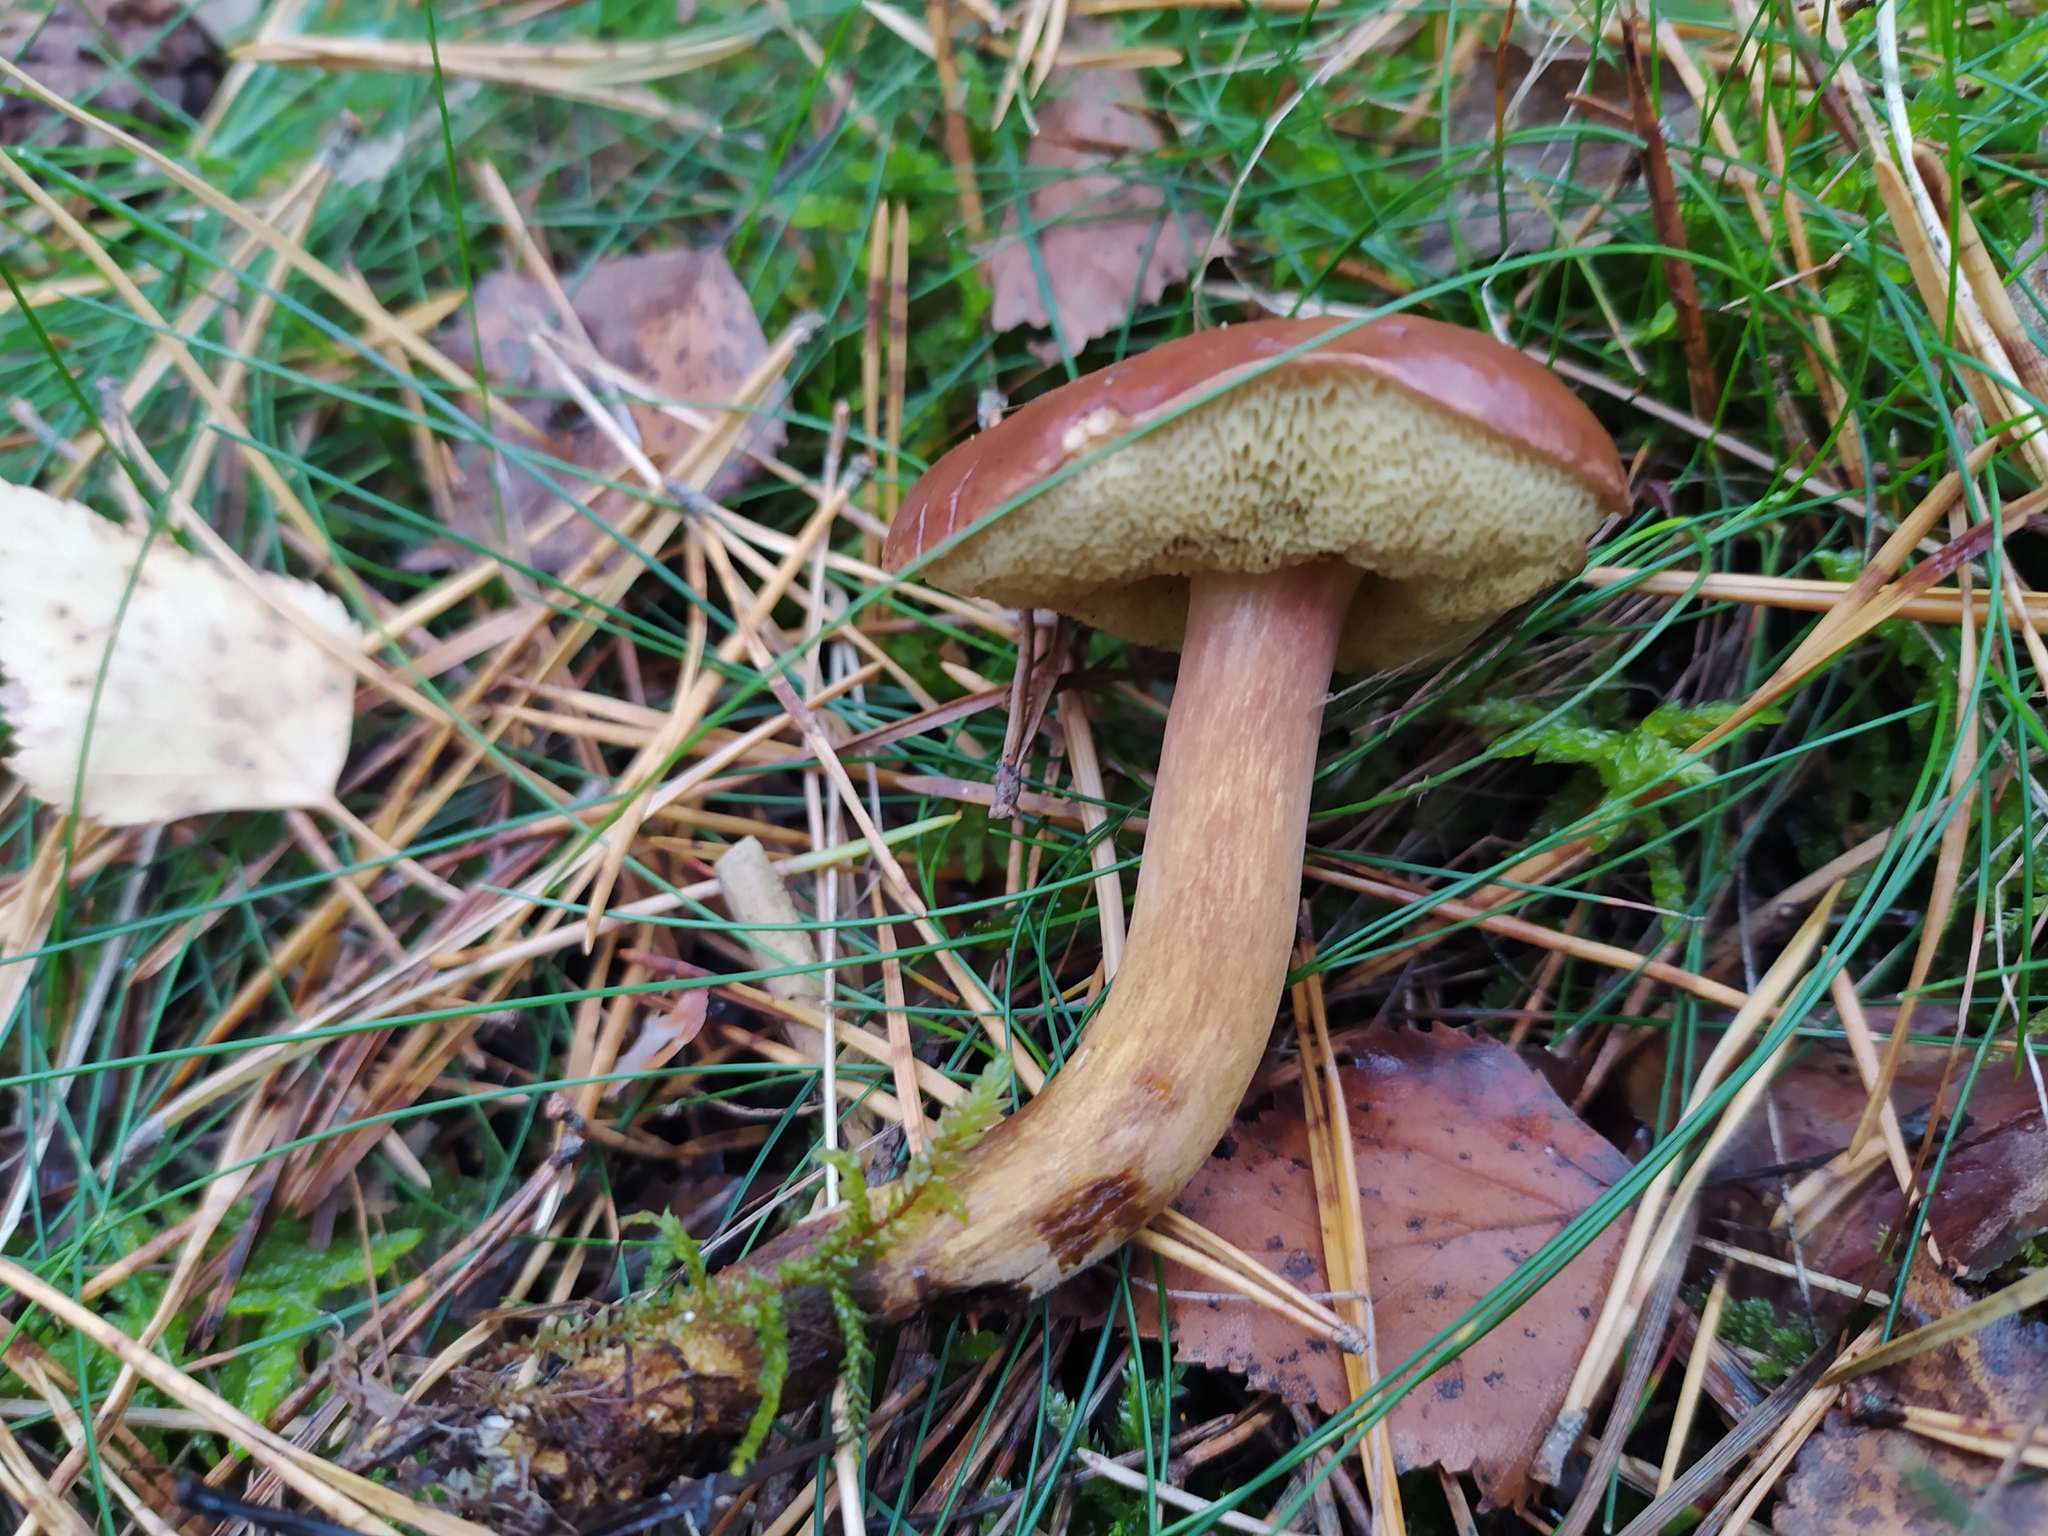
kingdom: Fungi
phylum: Basidiomycota
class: Agaricomycetes
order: Boletales
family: Boletaceae
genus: Imleria
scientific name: Imleria badia
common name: Bay bolete
